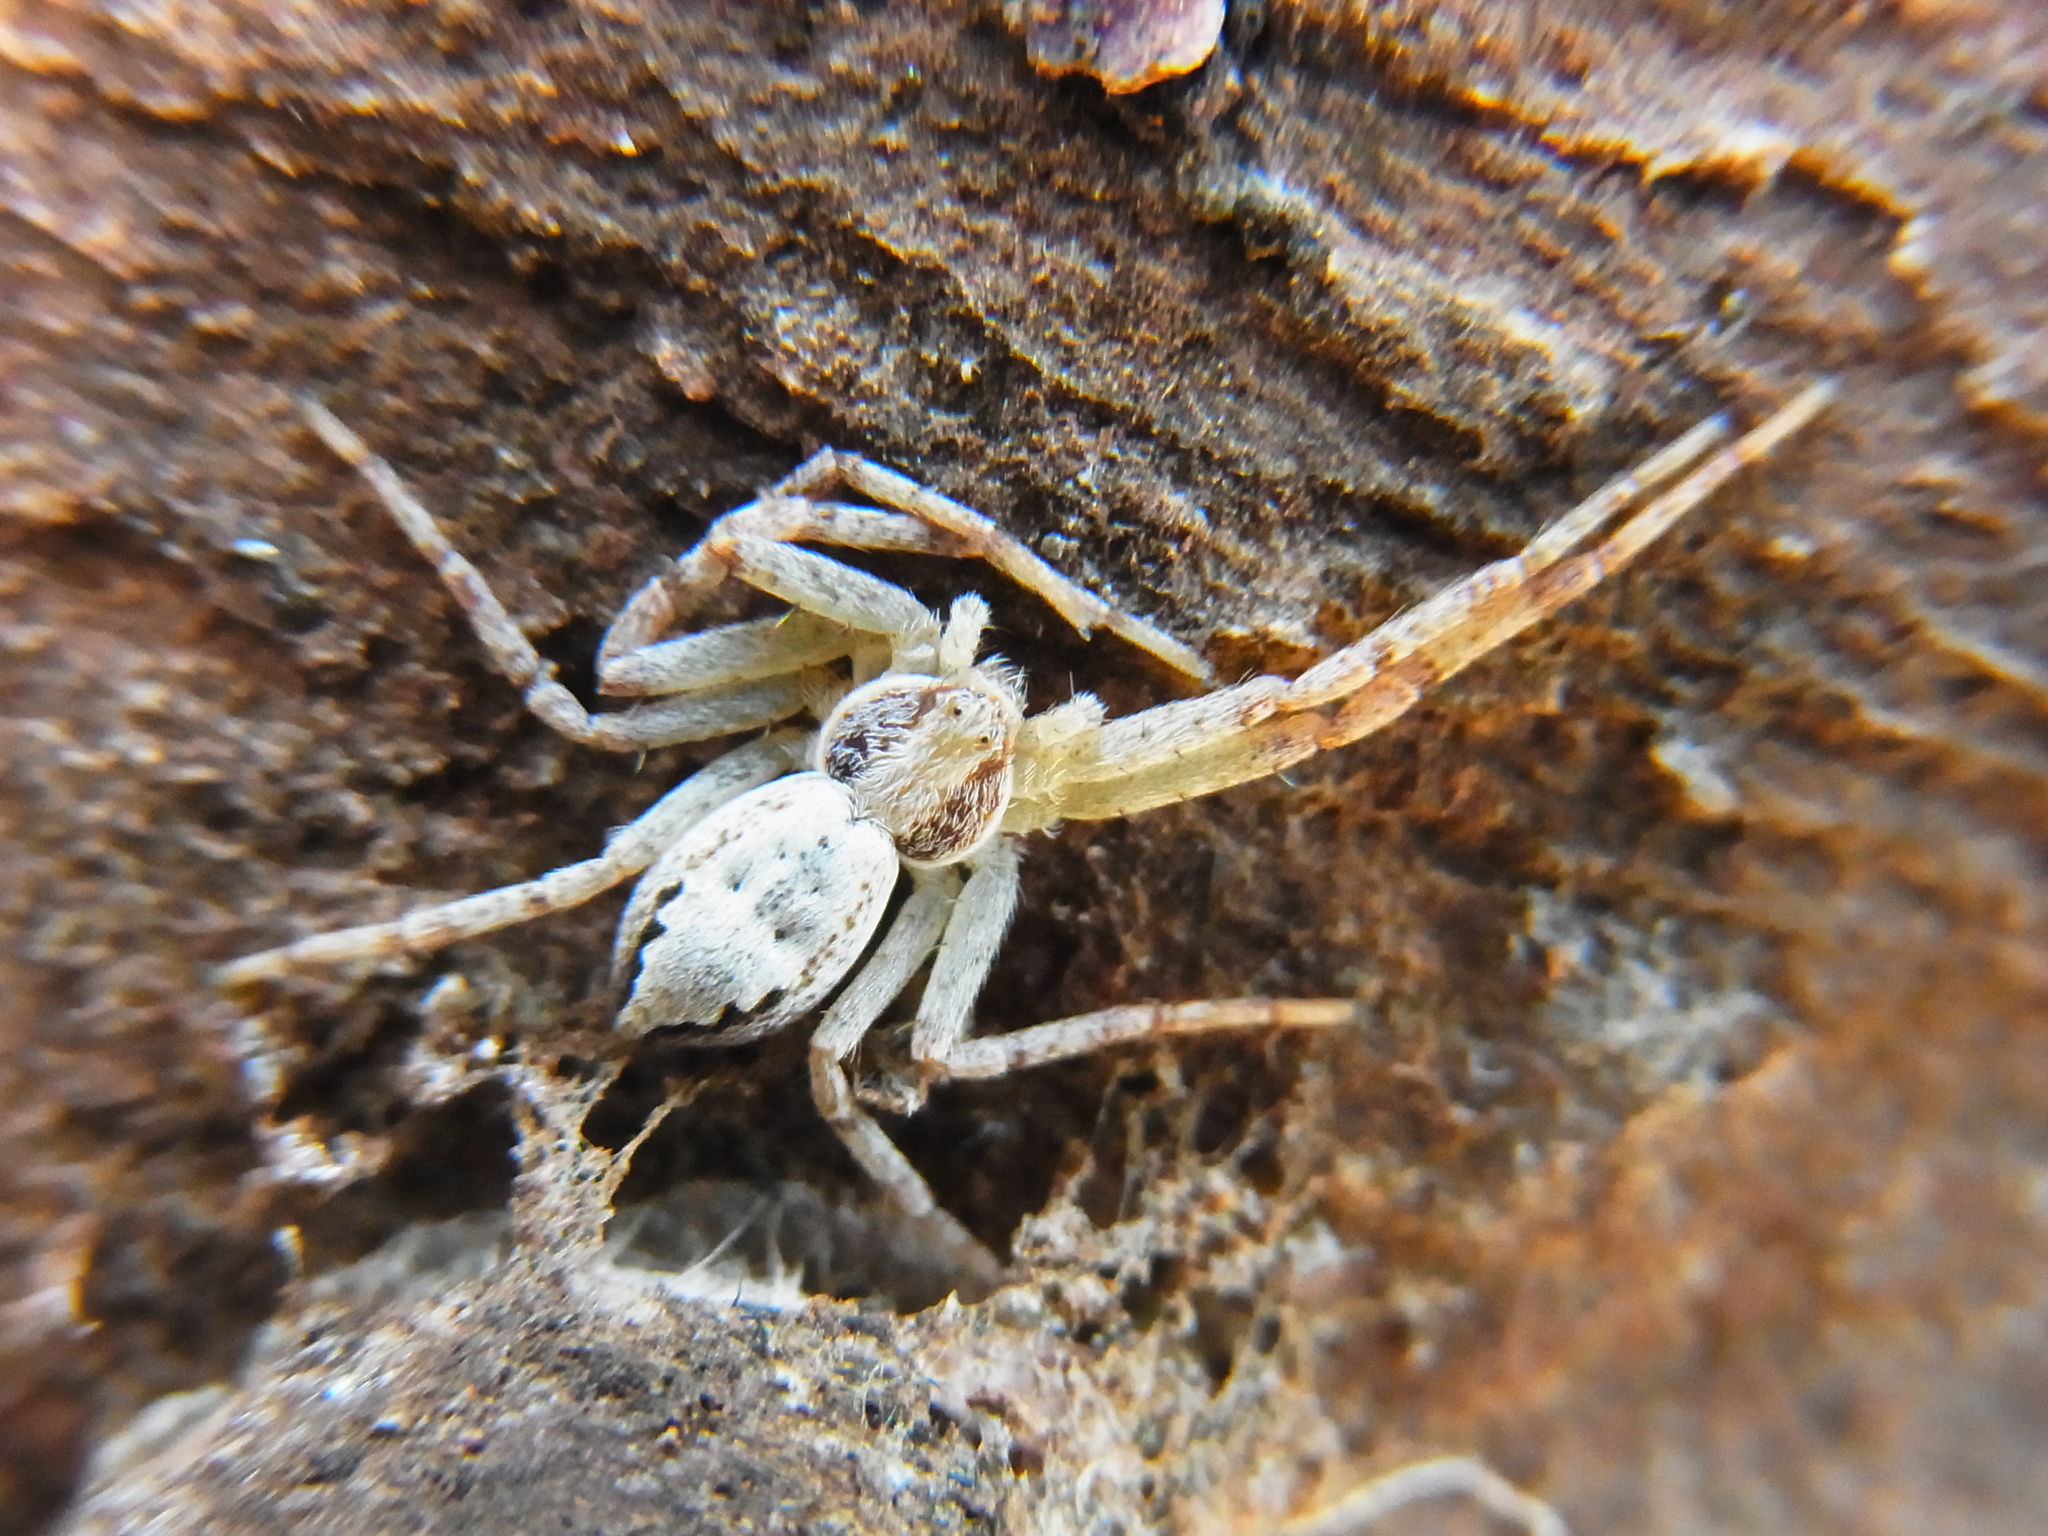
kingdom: Animalia
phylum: Arthropoda
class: Arachnida
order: Araneae
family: Philodromidae
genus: Philodromus
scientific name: Philodromus auricomus
